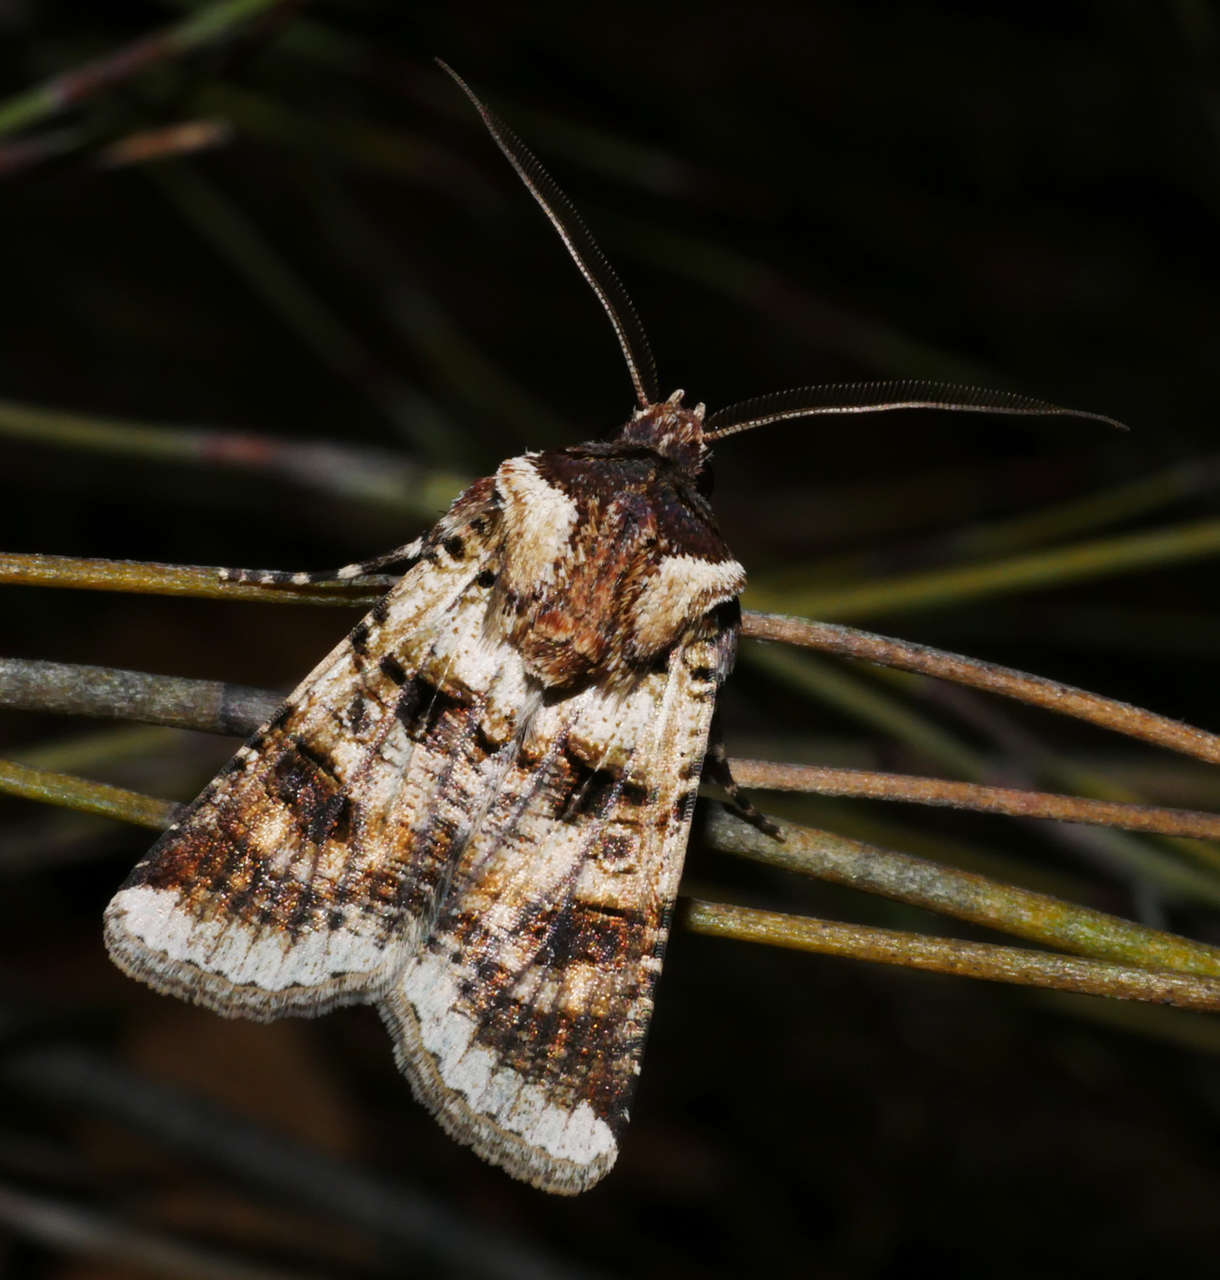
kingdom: Animalia
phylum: Arthropoda
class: Insecta
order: Lepidoptera
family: Noctuidae
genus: Agrotis
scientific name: Agrotis porphyricollis
